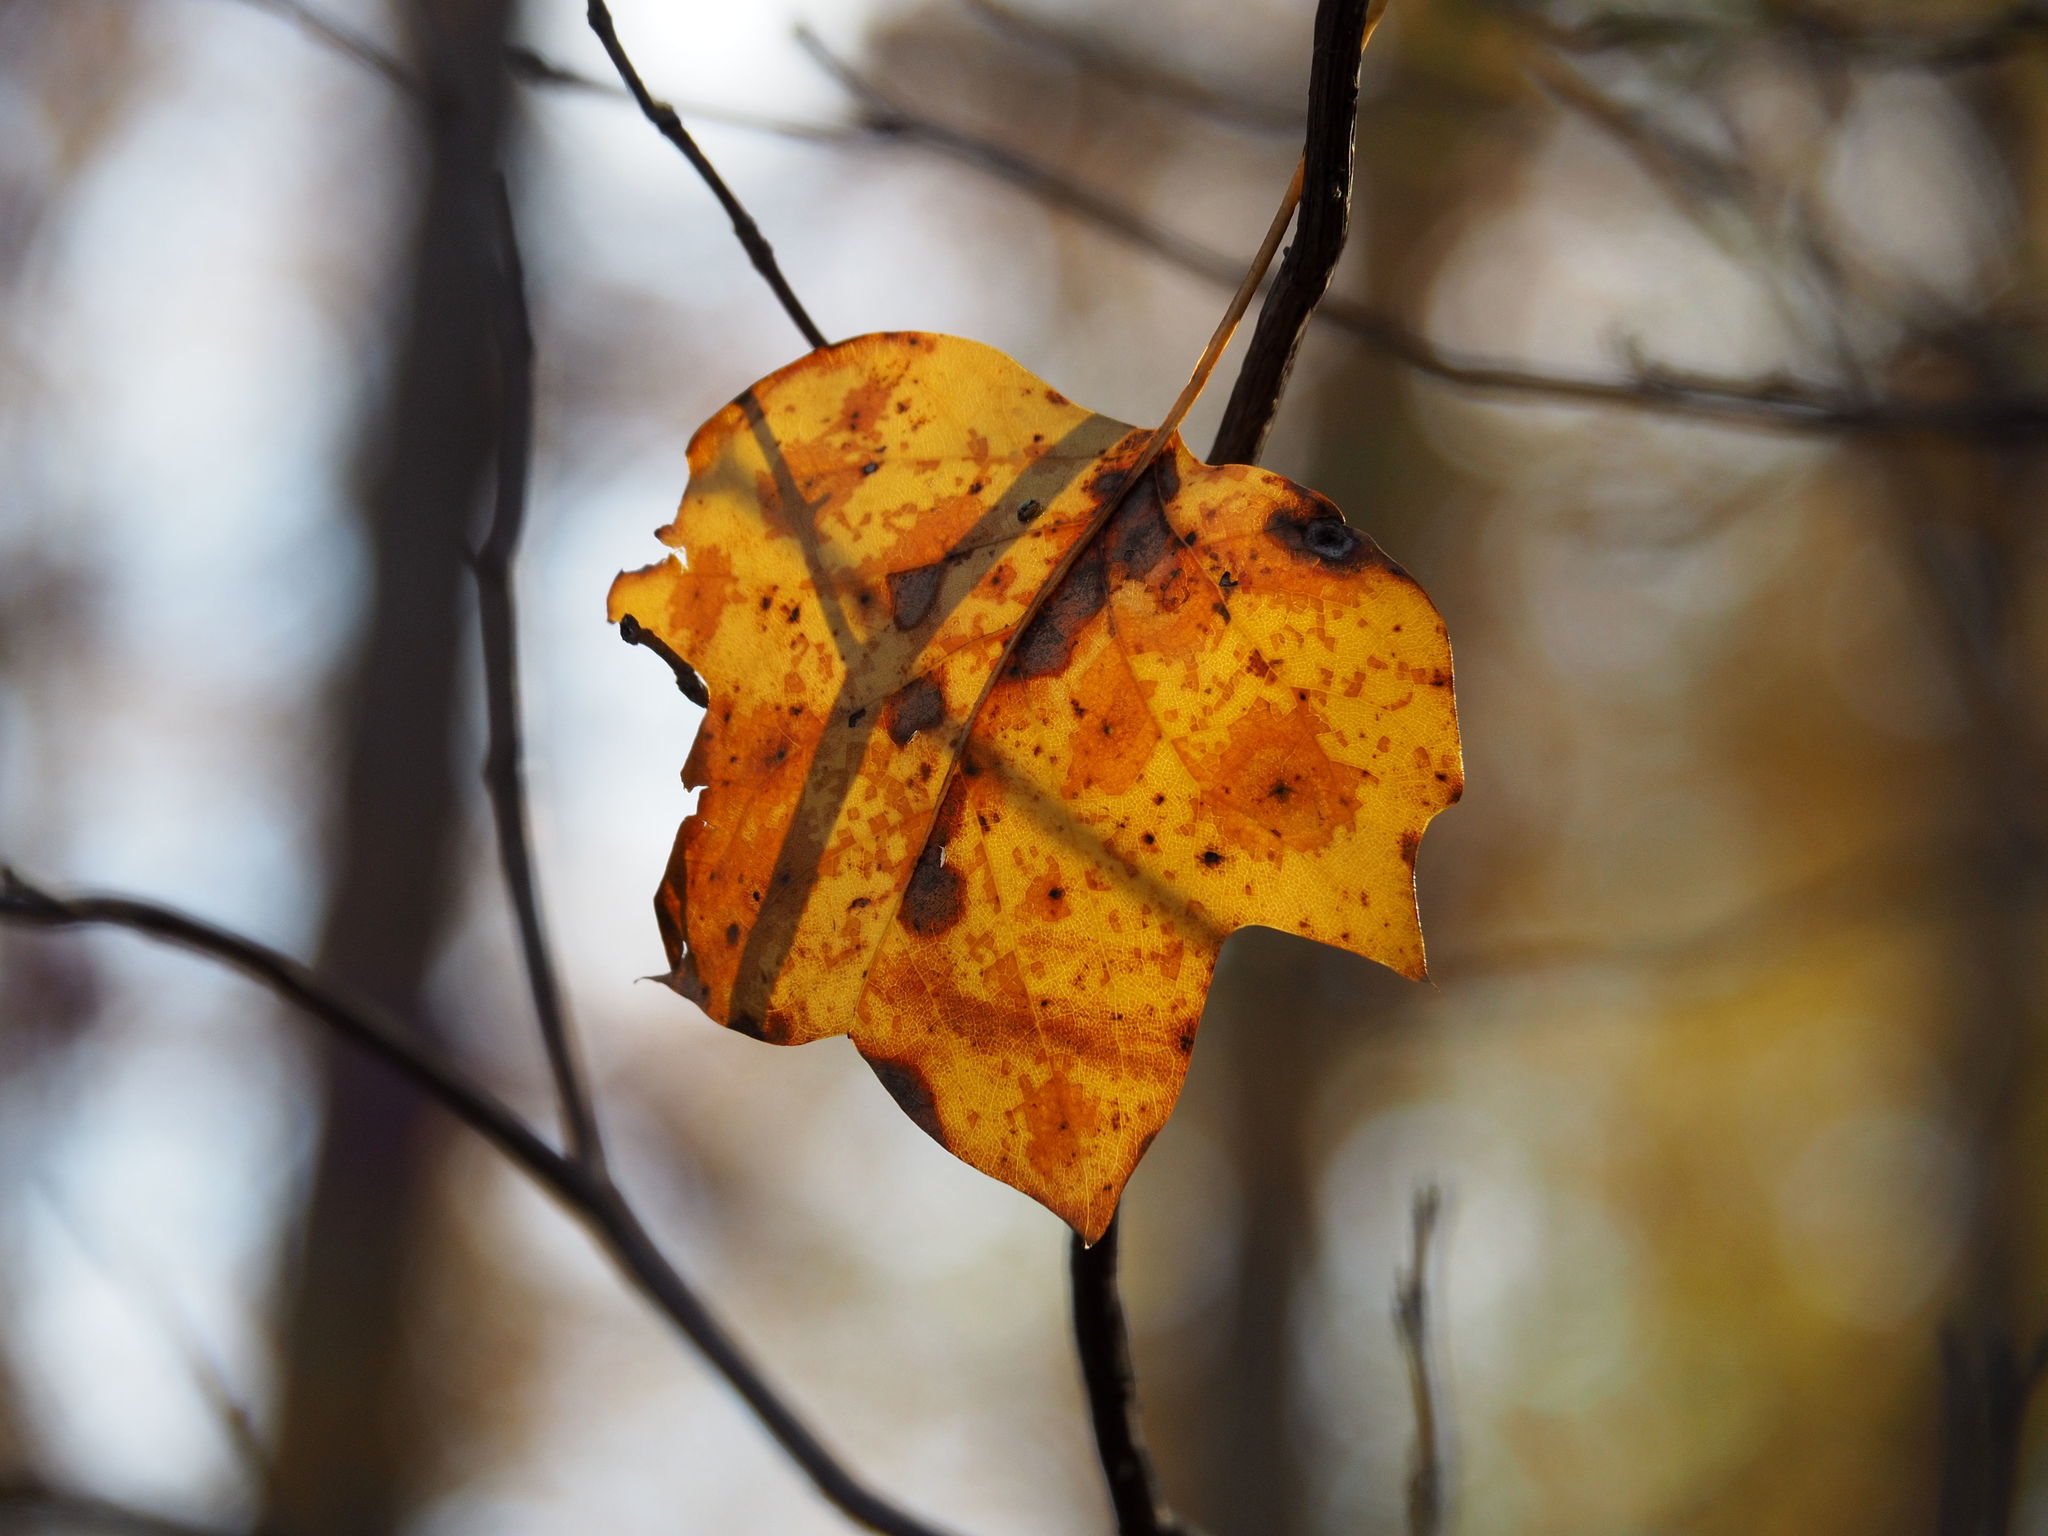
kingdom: Plantae
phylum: Tracheophyta
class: Magnoliopsida
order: Magnoliales
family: Magnoliaceae
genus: Liriodendron
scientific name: Liriodendron tulipifera
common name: Tulip tree
